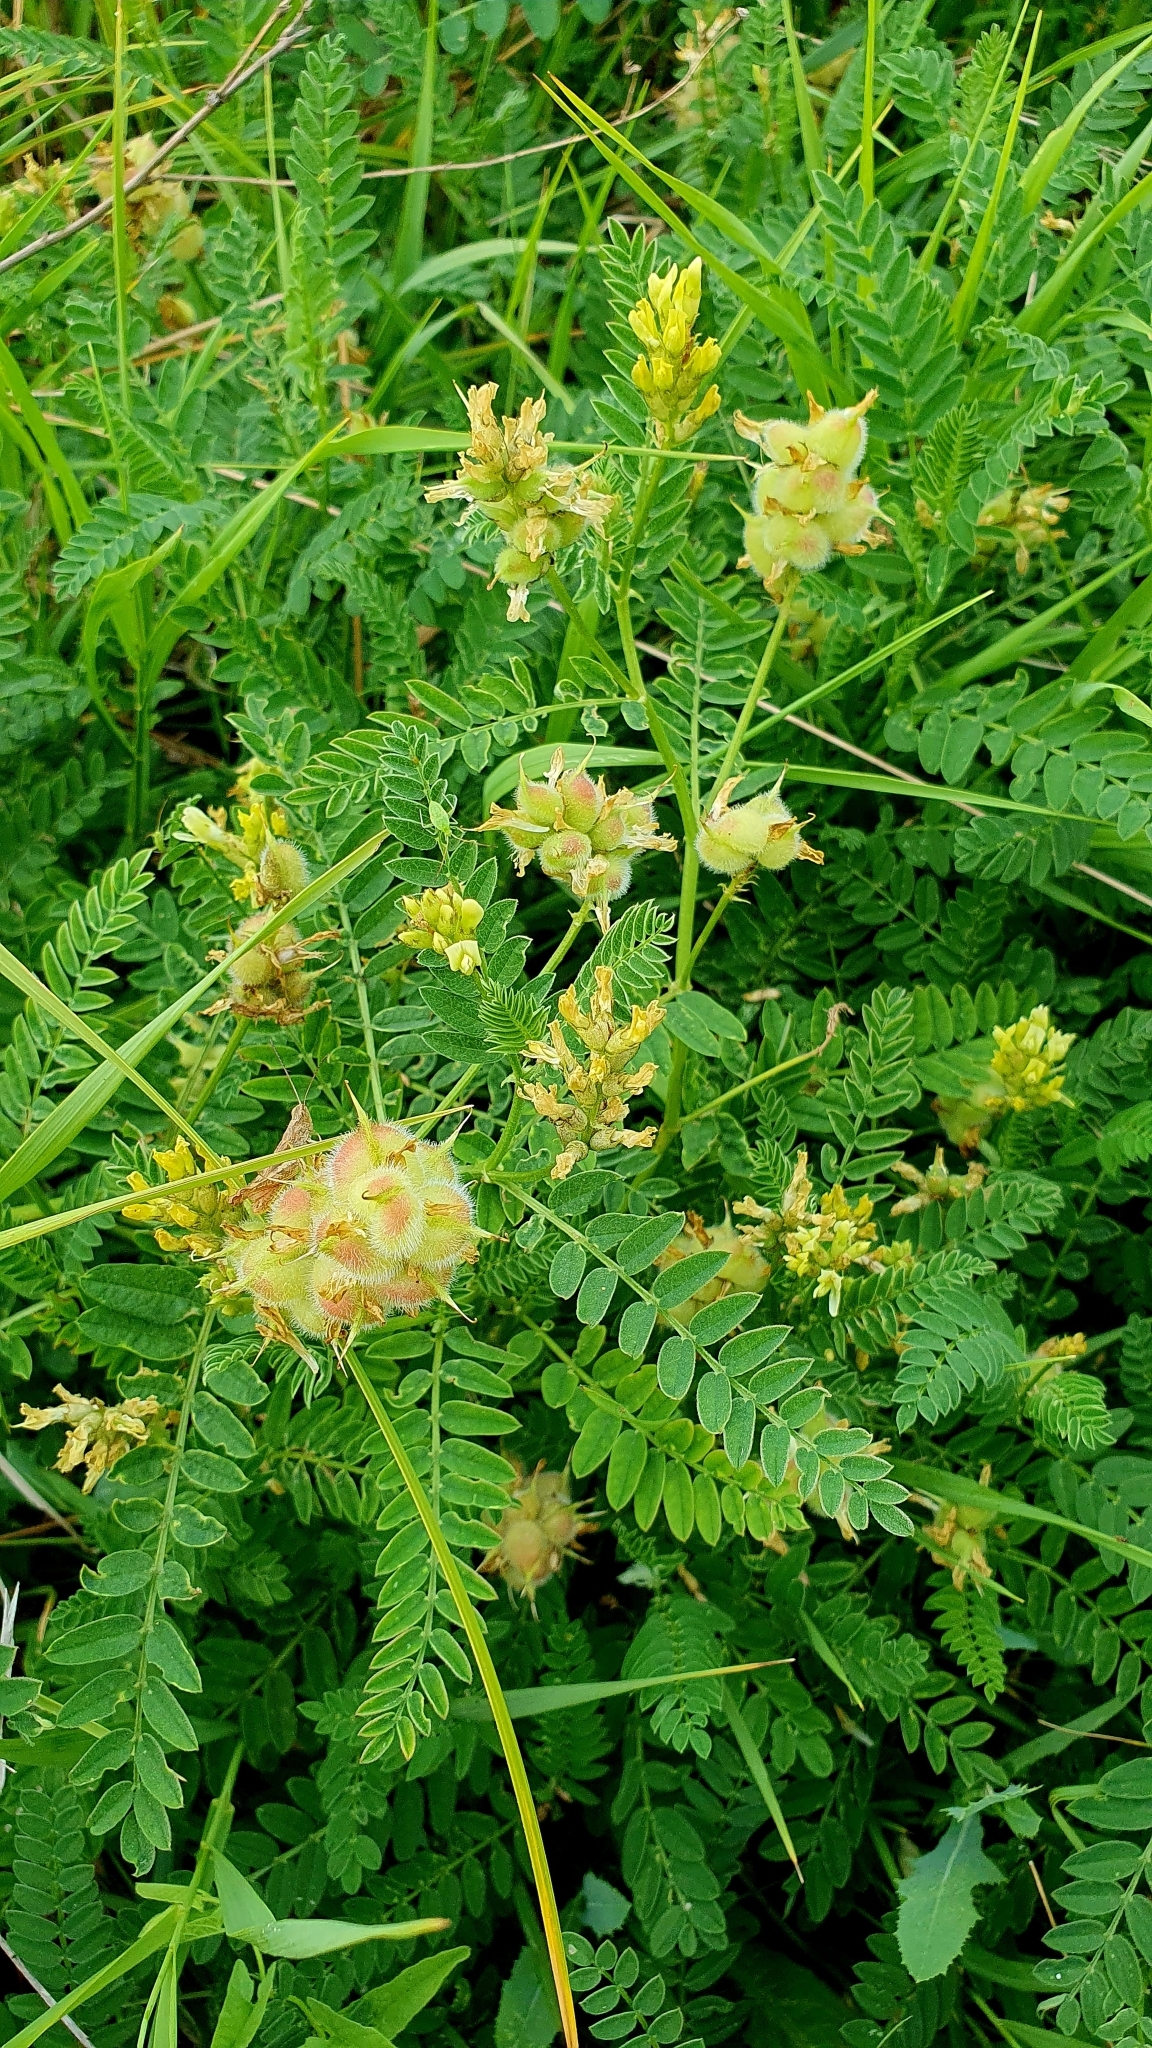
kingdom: Plantae
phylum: Tracheophyta
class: Magnoliopsida
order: Fabales
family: Fabaceae
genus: Astragalus
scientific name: Astragalus cicer
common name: Chick-pea milk-vetch
